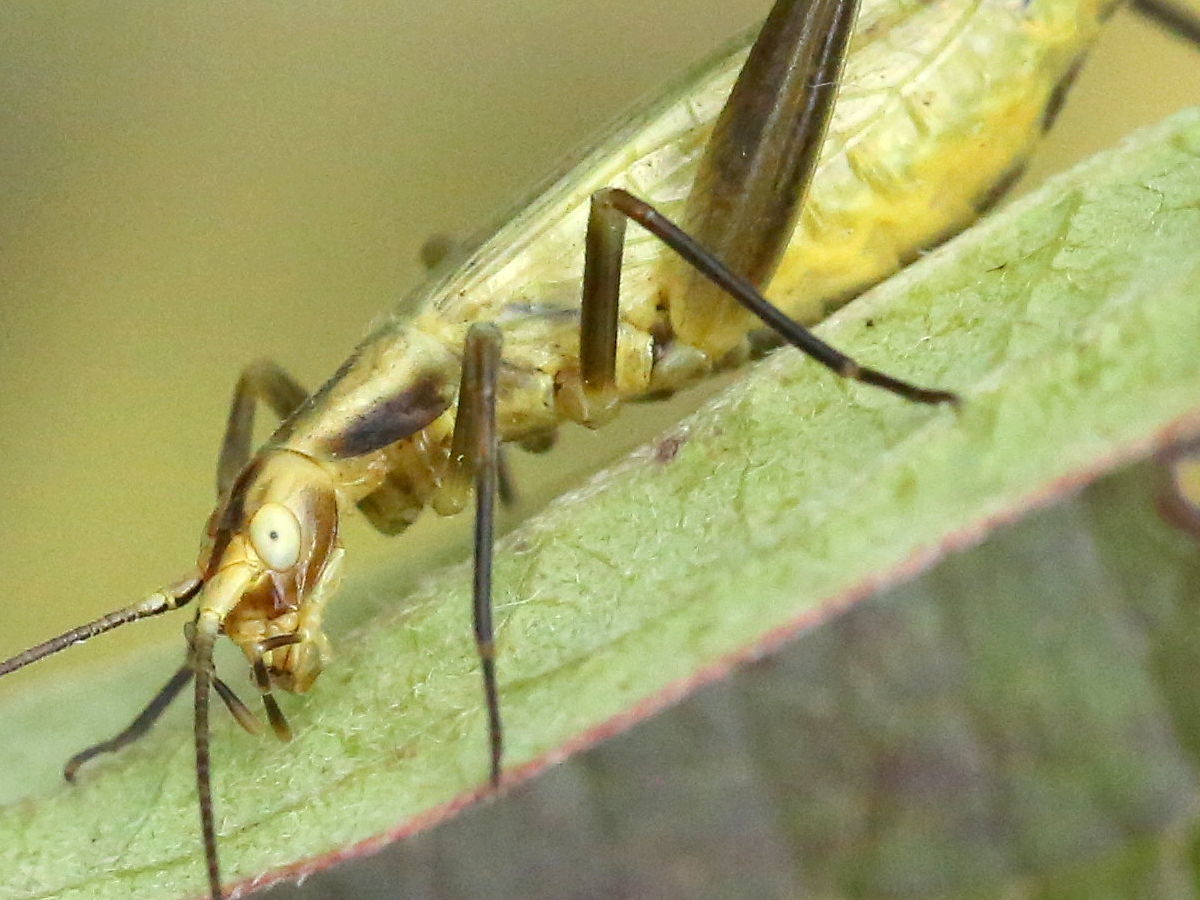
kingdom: Animalia
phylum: Arthropoda
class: Insecta
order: Orthoptera
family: Gryllidae
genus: Oecanthus
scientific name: Oecanthus forbesi
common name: Forbes’s tree cricket
